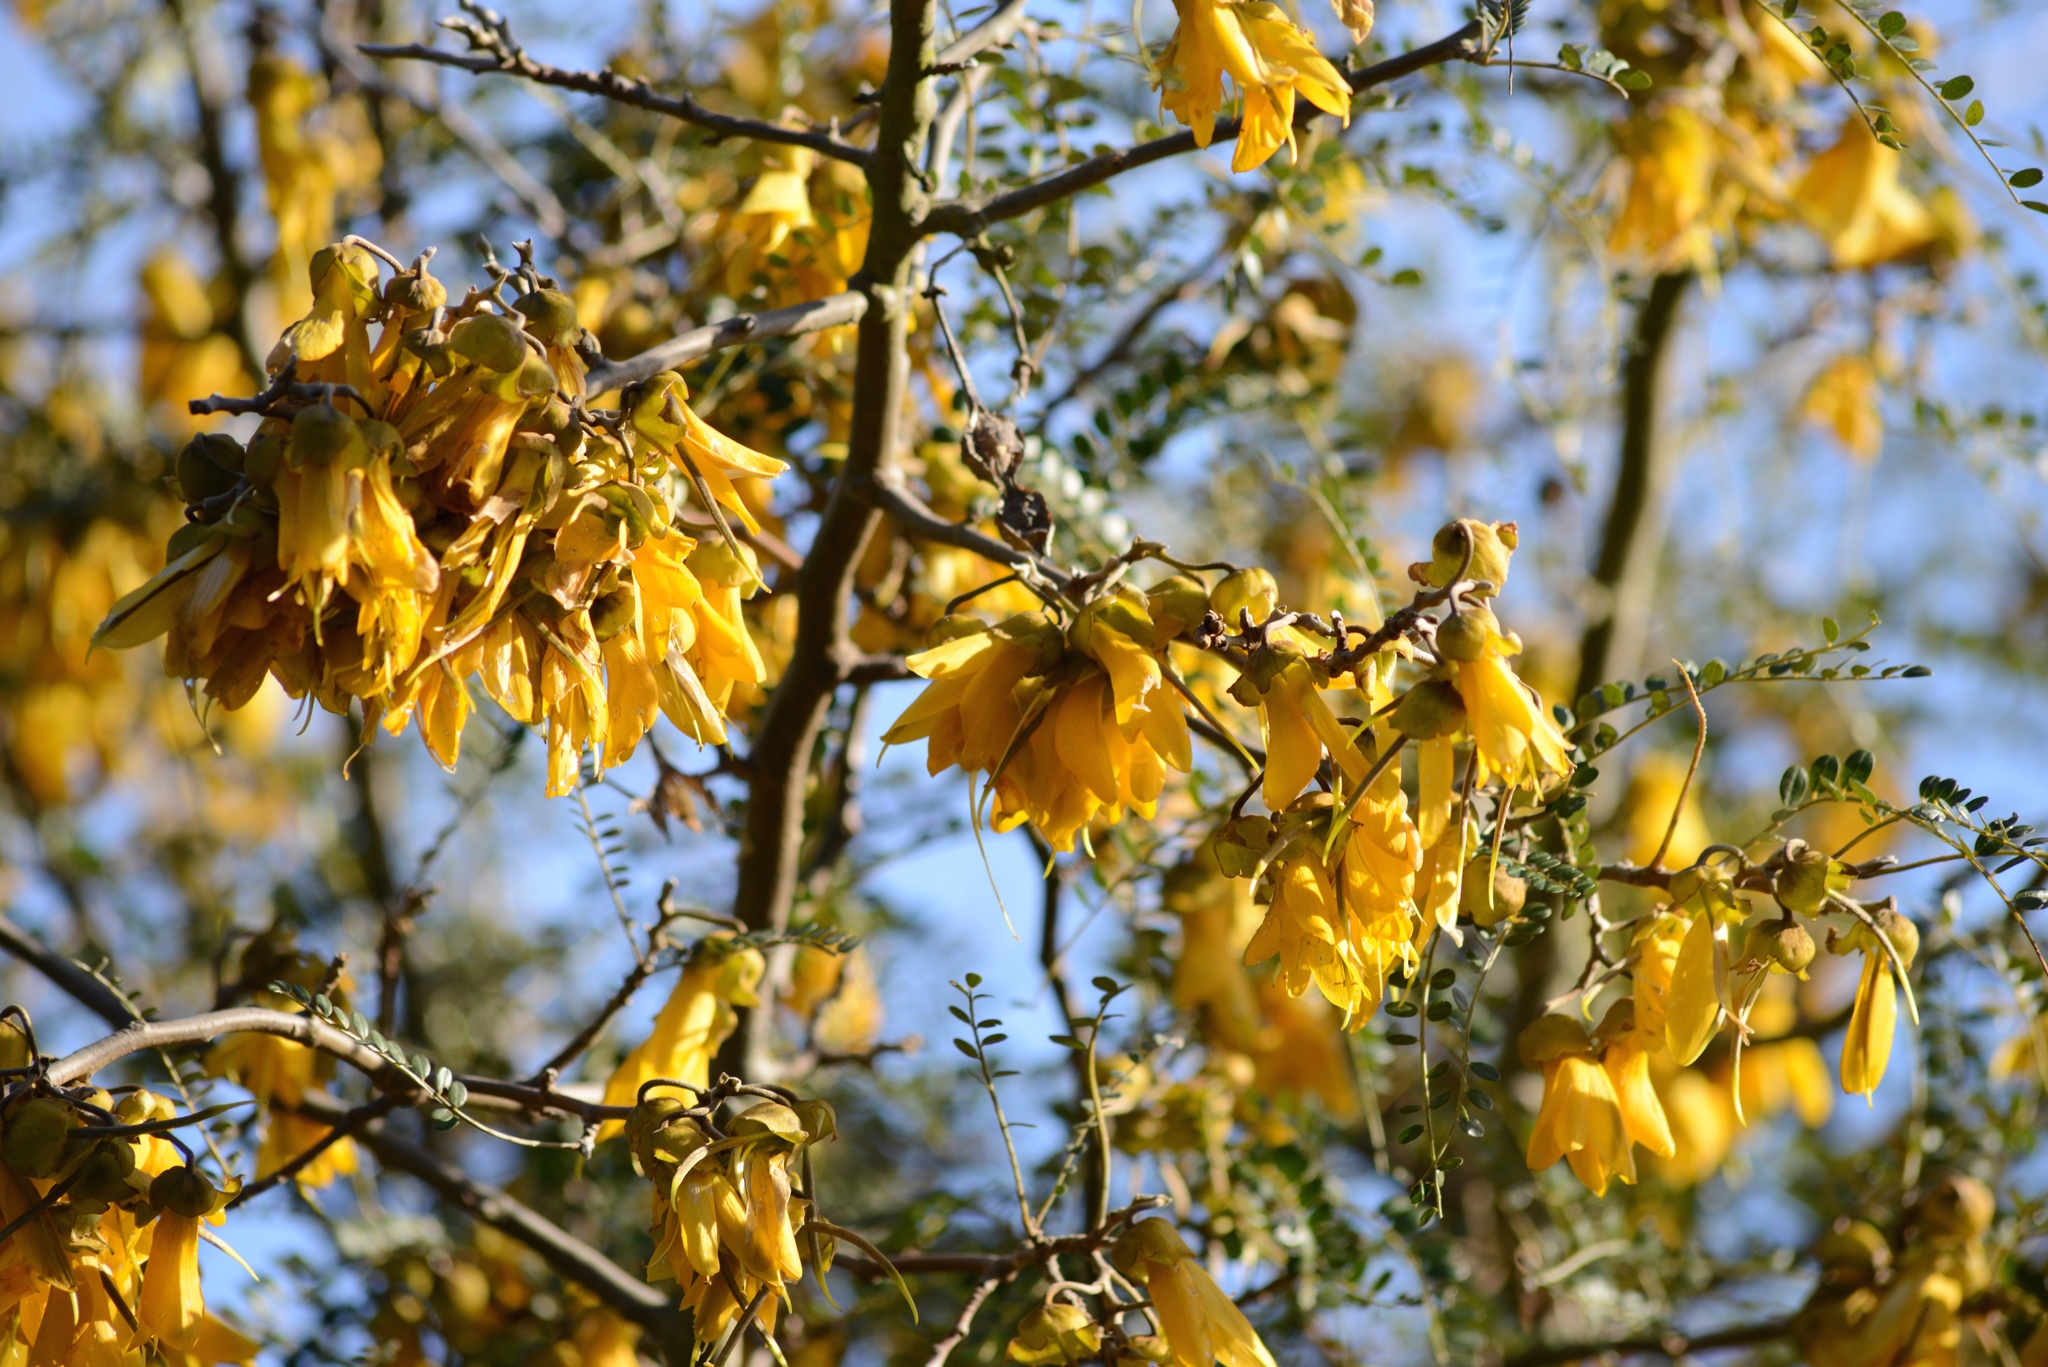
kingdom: Plantae
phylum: Tracheophyta
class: Magnoliopsida
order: Fabales
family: Fabaceae
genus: Sophora
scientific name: Sophora microphylla
